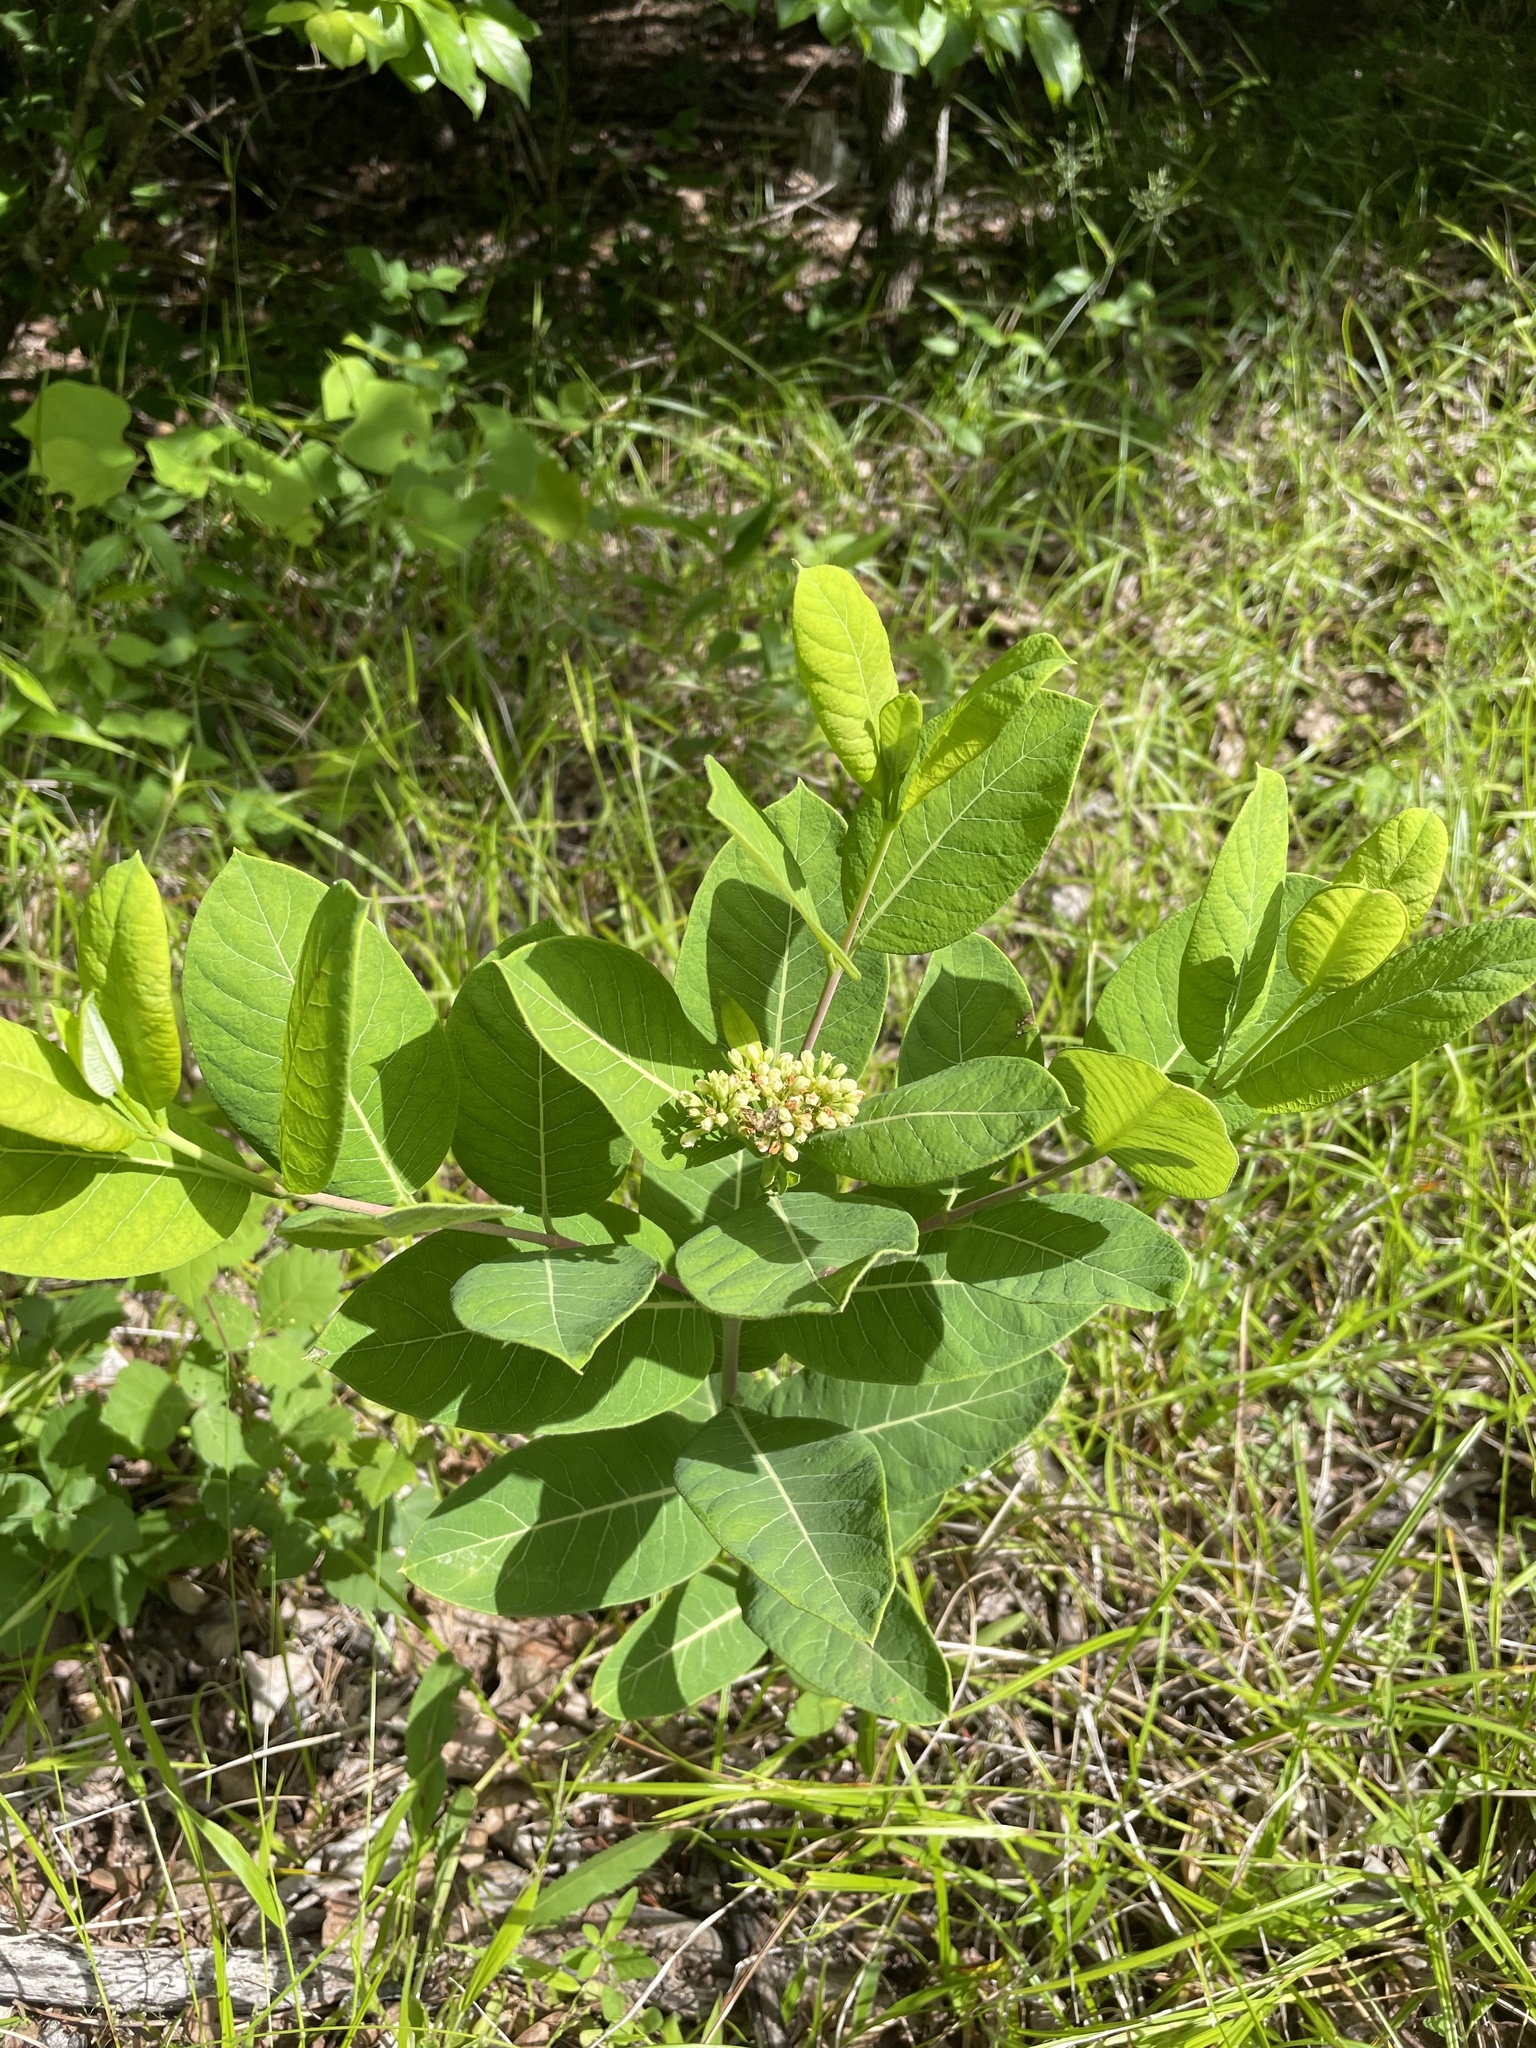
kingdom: Plantae
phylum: Tracheophyta
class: Magnoliopsida
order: Gentianales
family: Apocynaceae
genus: Apocynum
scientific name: Apocynum cannabinum
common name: Hemp dogbane
